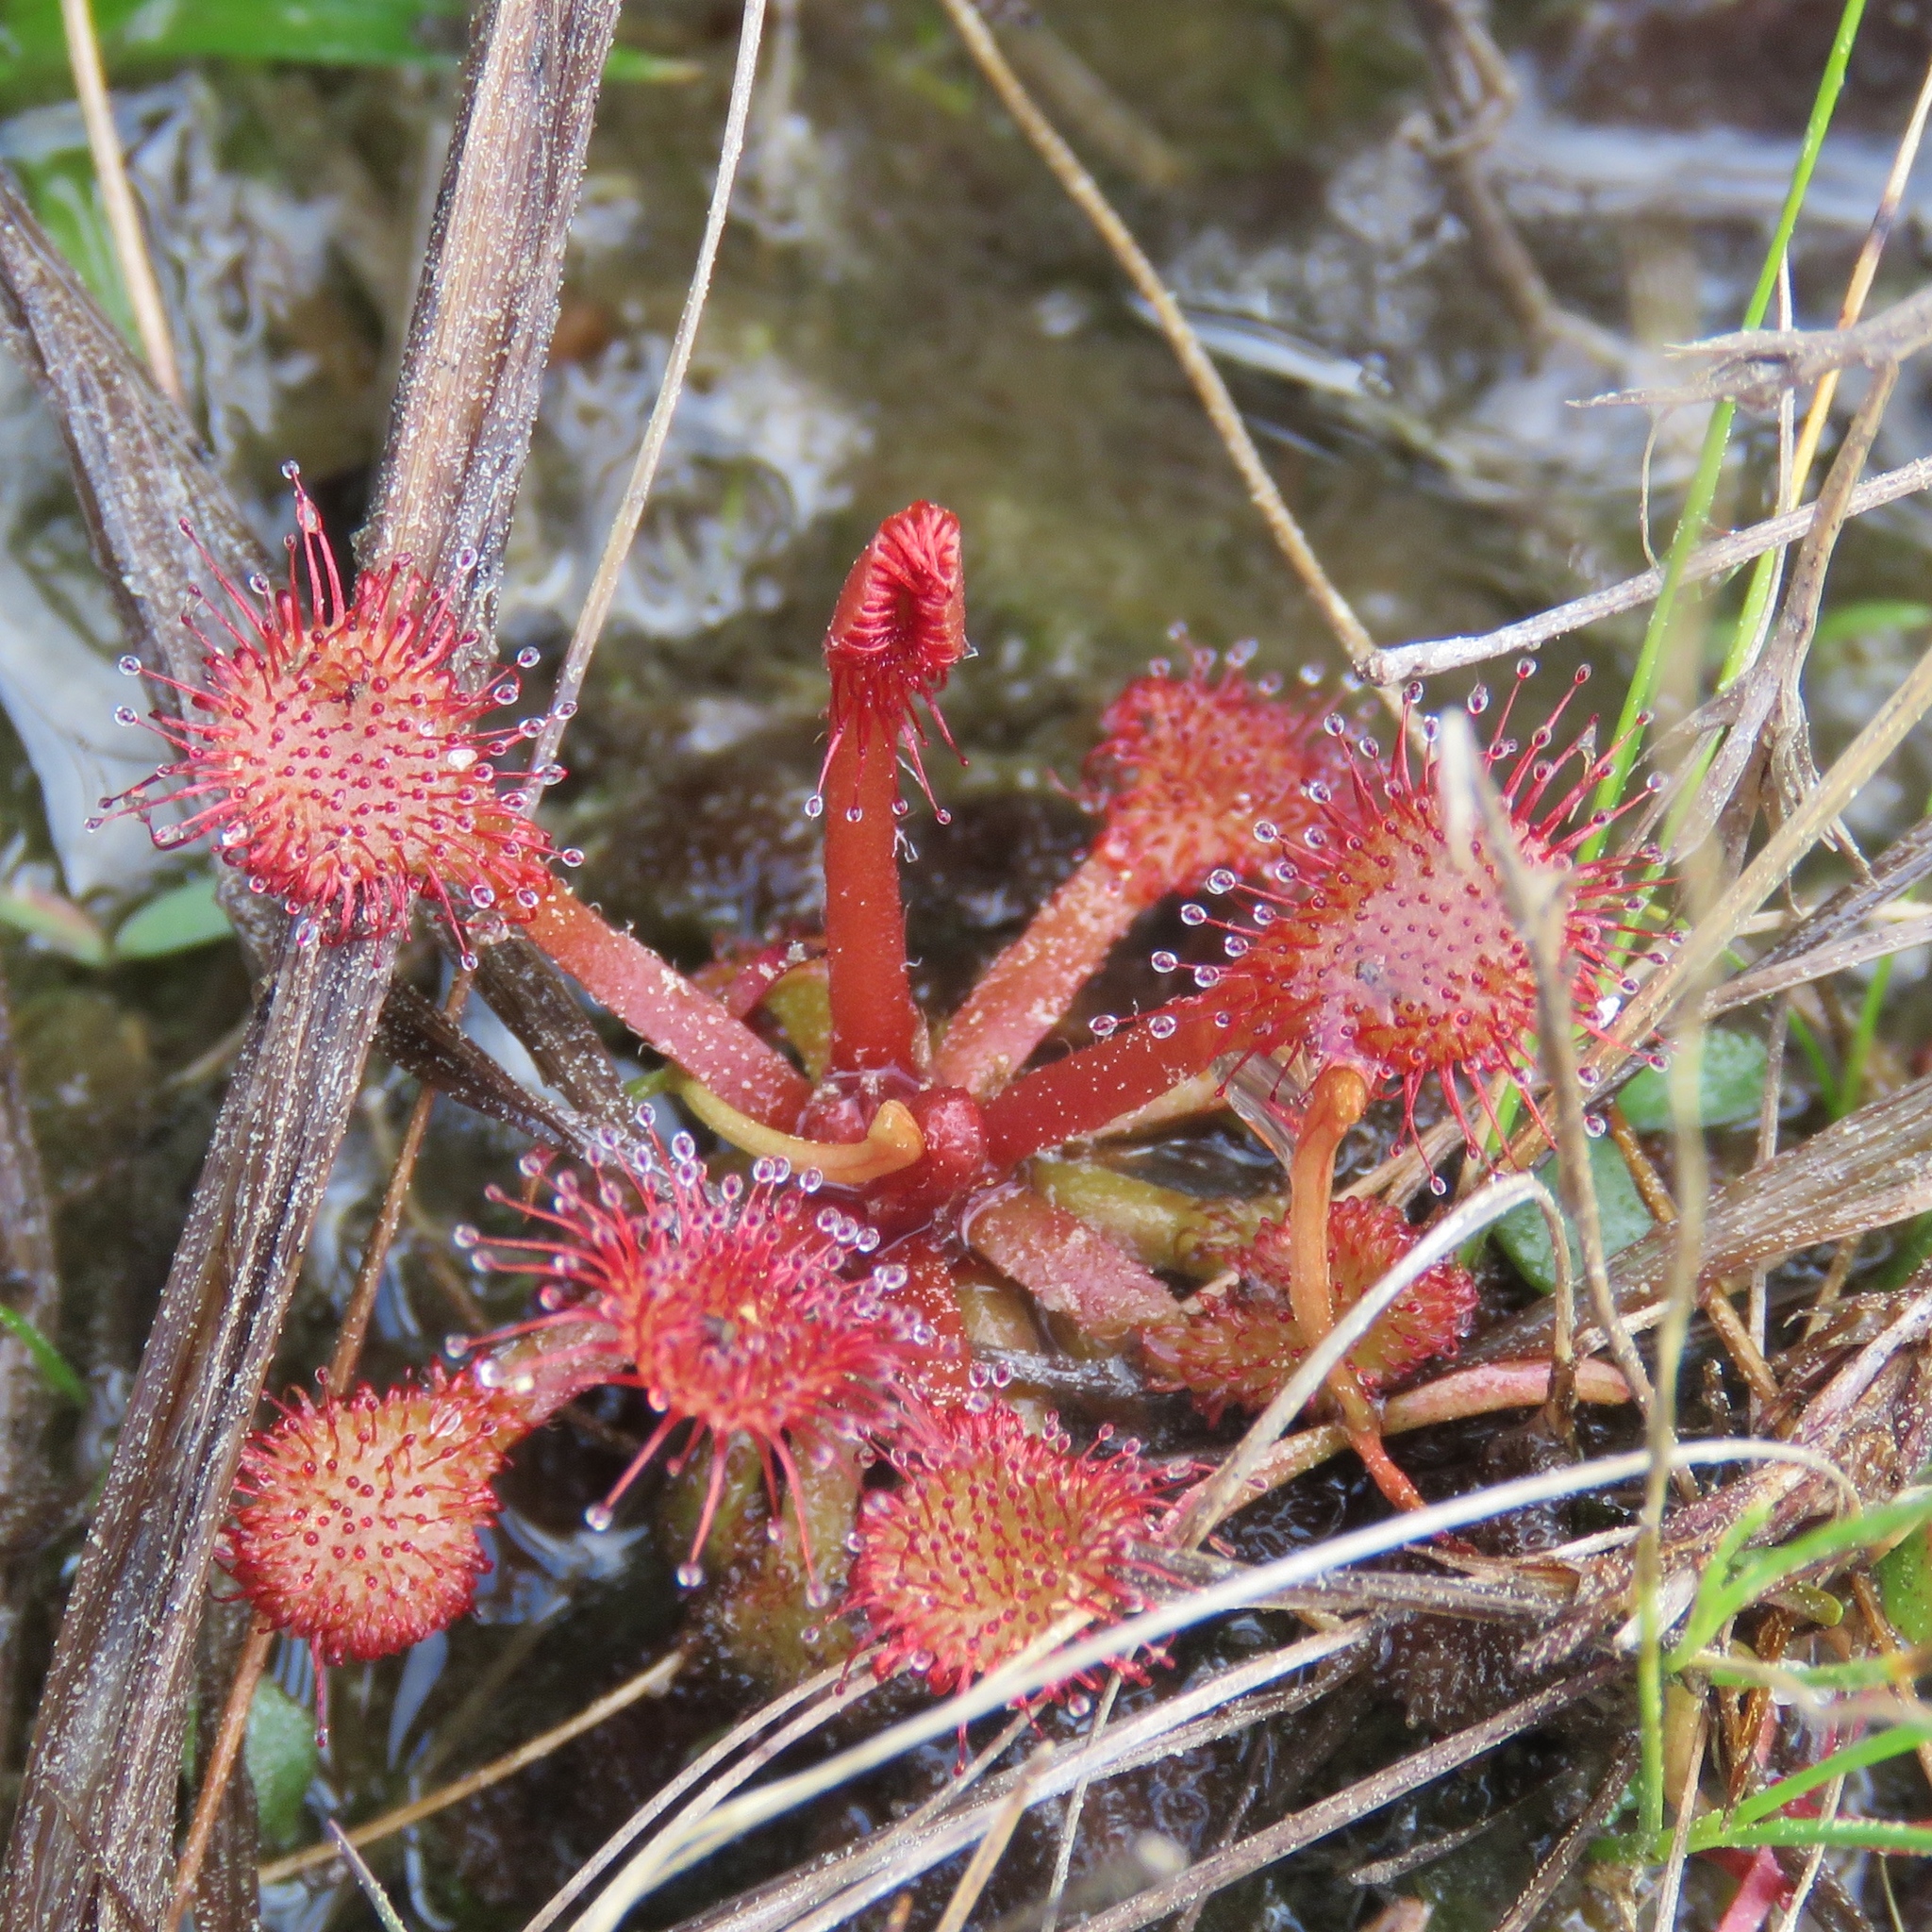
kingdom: Plantae
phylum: Tracheophyta
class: Magnoliopsida
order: Caryophyllales
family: Droseraceae
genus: Drosera
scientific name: Drosera capillaris
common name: Pink sundew
